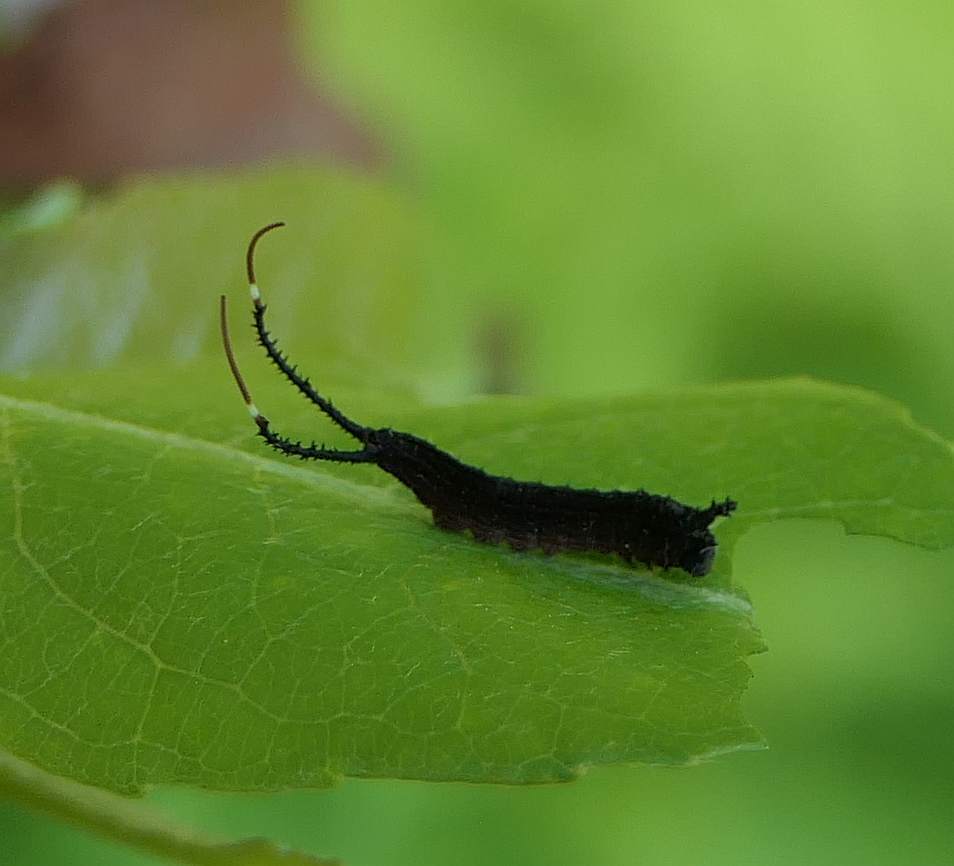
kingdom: Animalia
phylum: Arthropoda
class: Insecta
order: Lepidoptera
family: Notodontidae
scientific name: Notodontidae
